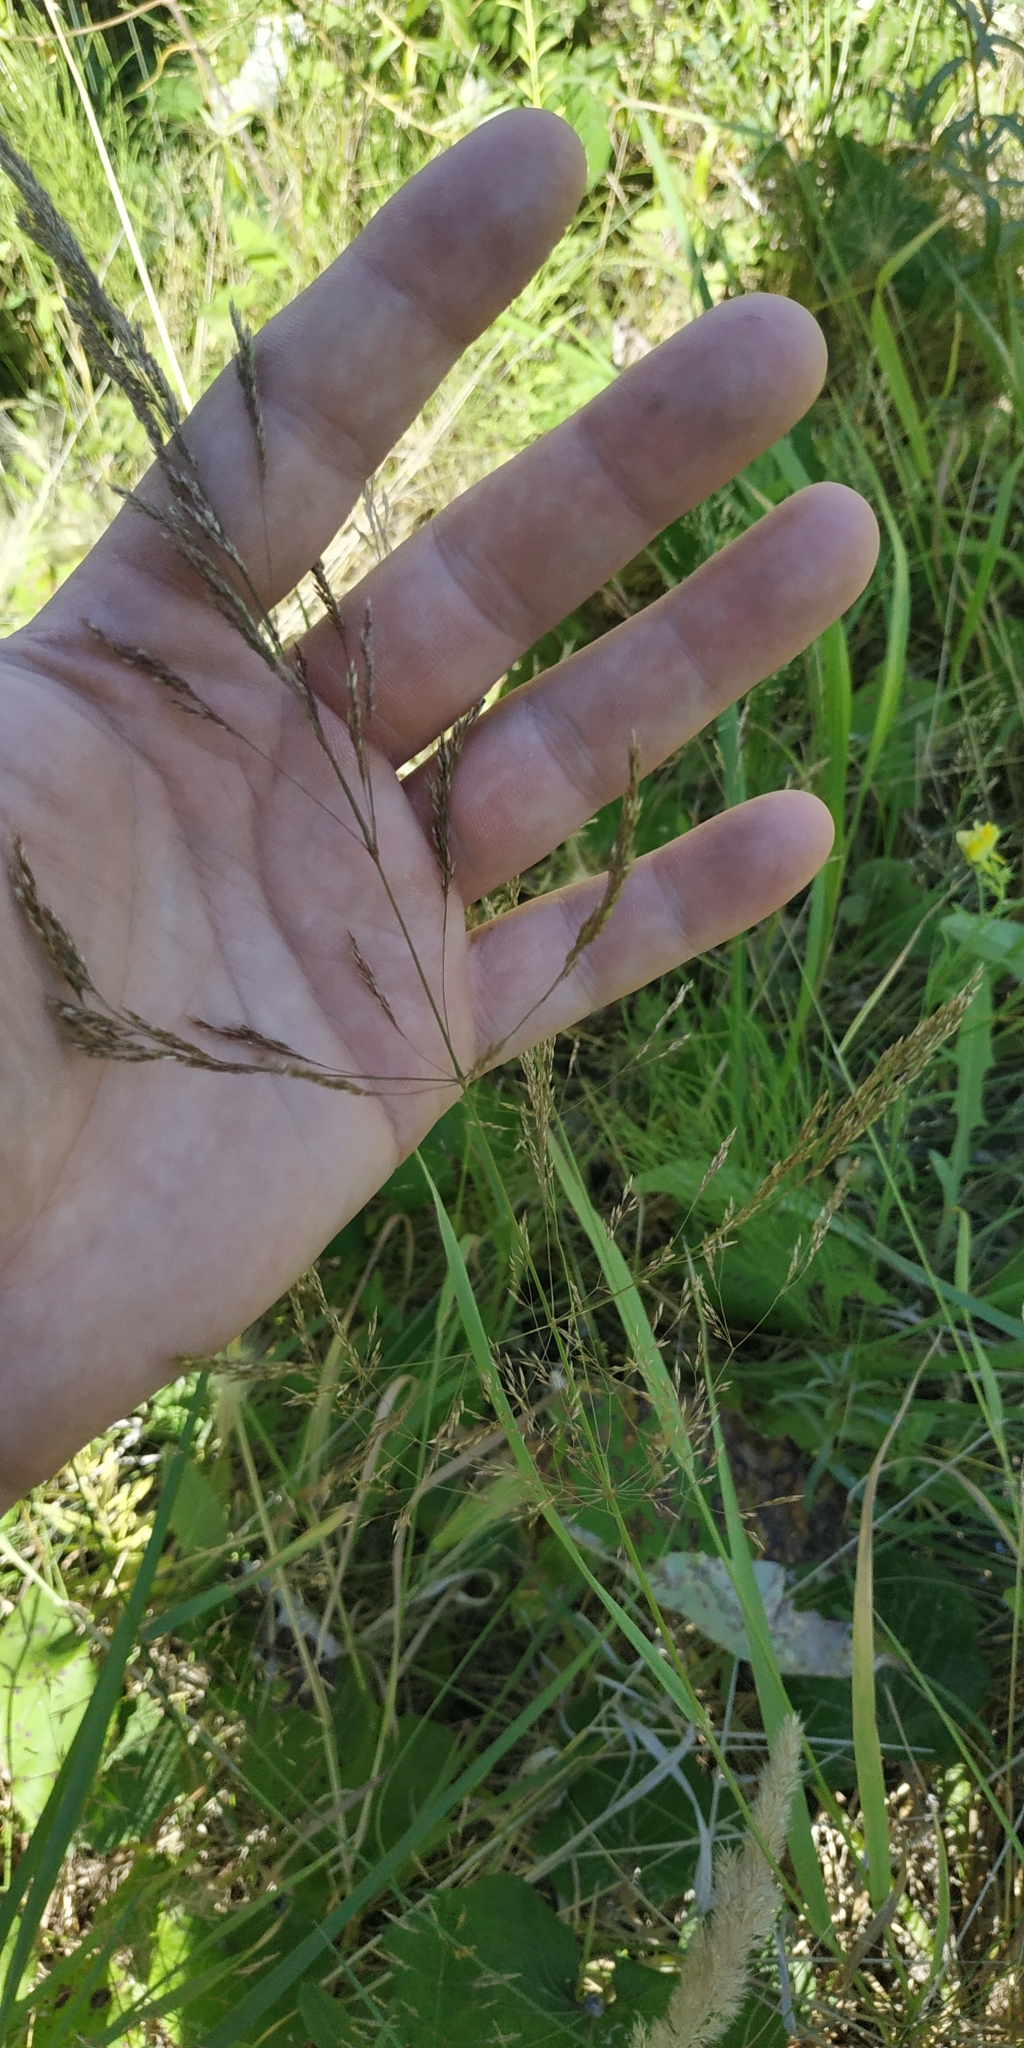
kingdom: Plantae
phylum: Tracheophyta
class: Liliopsida
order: Poales
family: Poaceae
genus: Agrostis
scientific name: Agrostis gigantea
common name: Black bent
